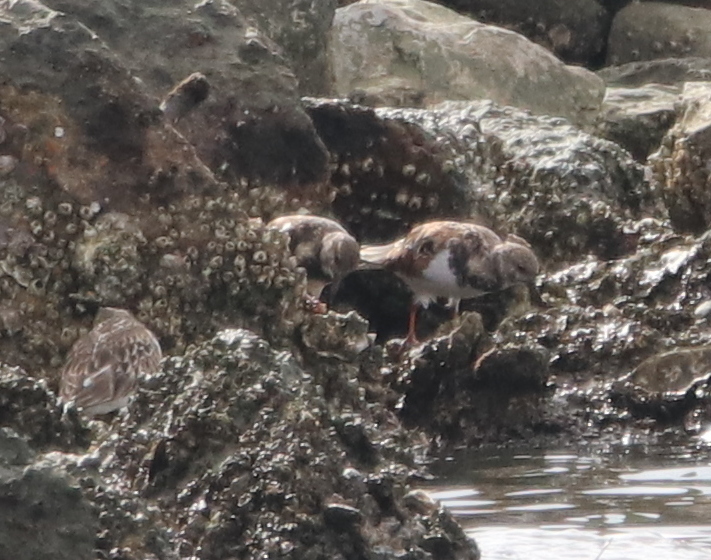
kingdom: Animalia
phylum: Chordata
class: Aves
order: Charadriiformes
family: Scolopacidae
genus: Arenaria
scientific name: Arenaria interpres
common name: Ruddy turnstone
